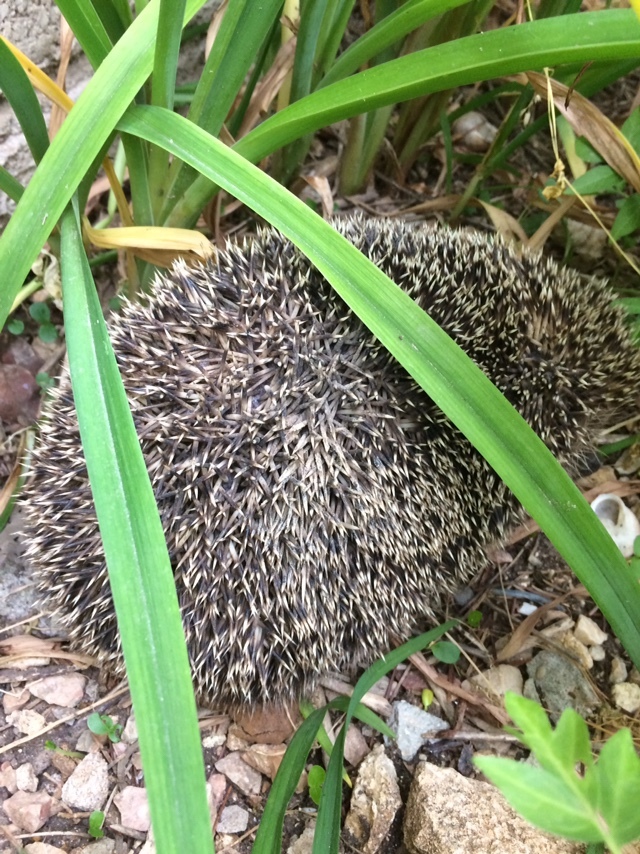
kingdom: Animalia
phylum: Chordata
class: Mammalia
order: Erinaceomorpha
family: Erinaceidae
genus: Erinaceus
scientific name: Erinaceus roumanicus
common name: Northern white-breasted hedgehog
